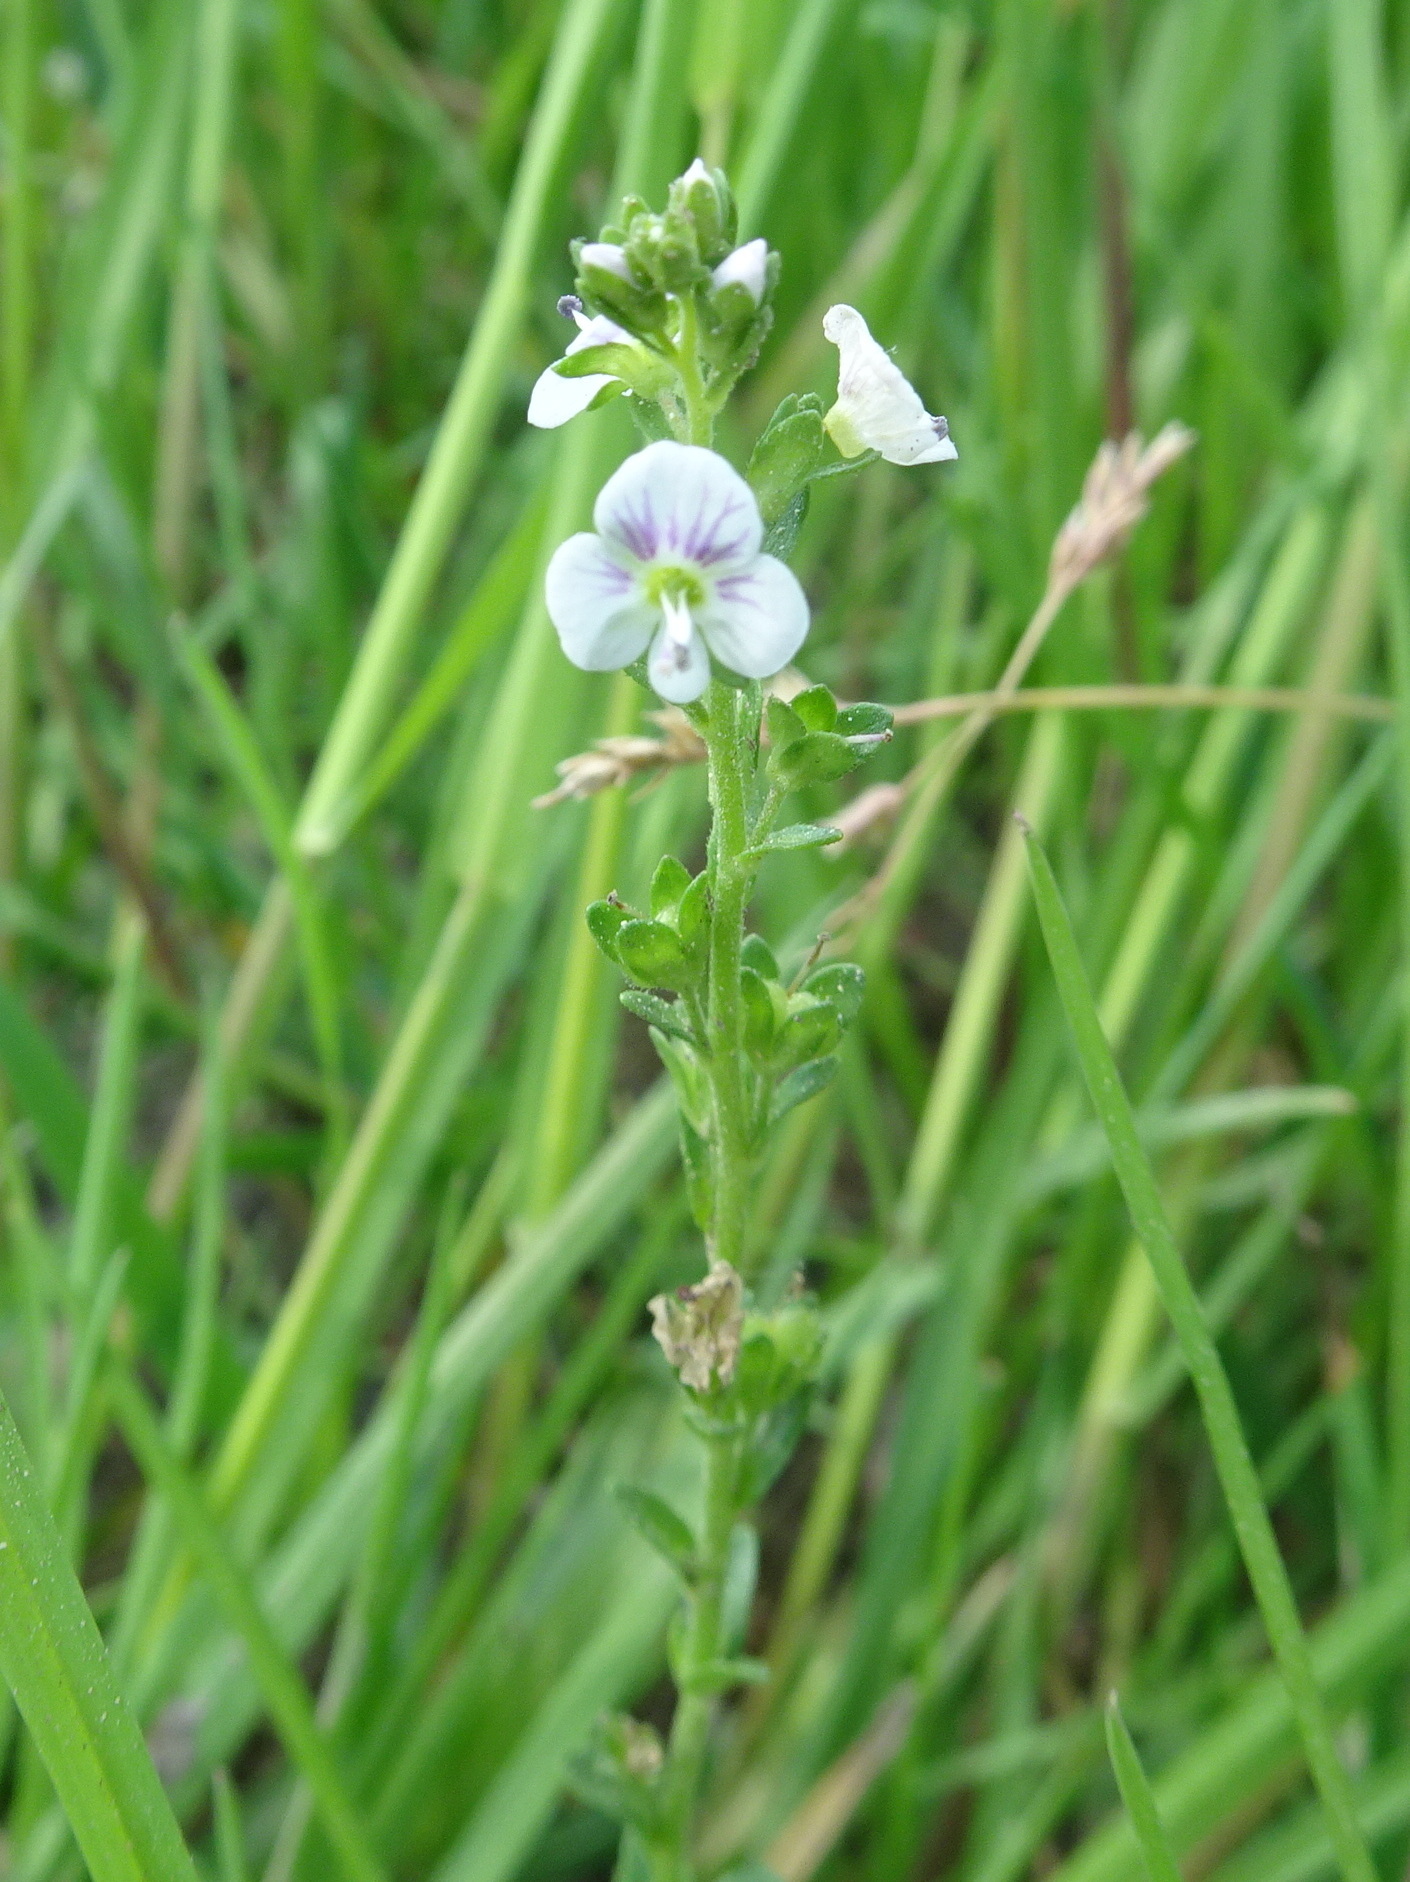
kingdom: Plantae
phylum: Tracheophyta
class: Magnoliopsida
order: Lamiales
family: Plantaginaceae
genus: Veronica
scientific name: Veronica serpyllifolia
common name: Thyme-leaved speedwell
